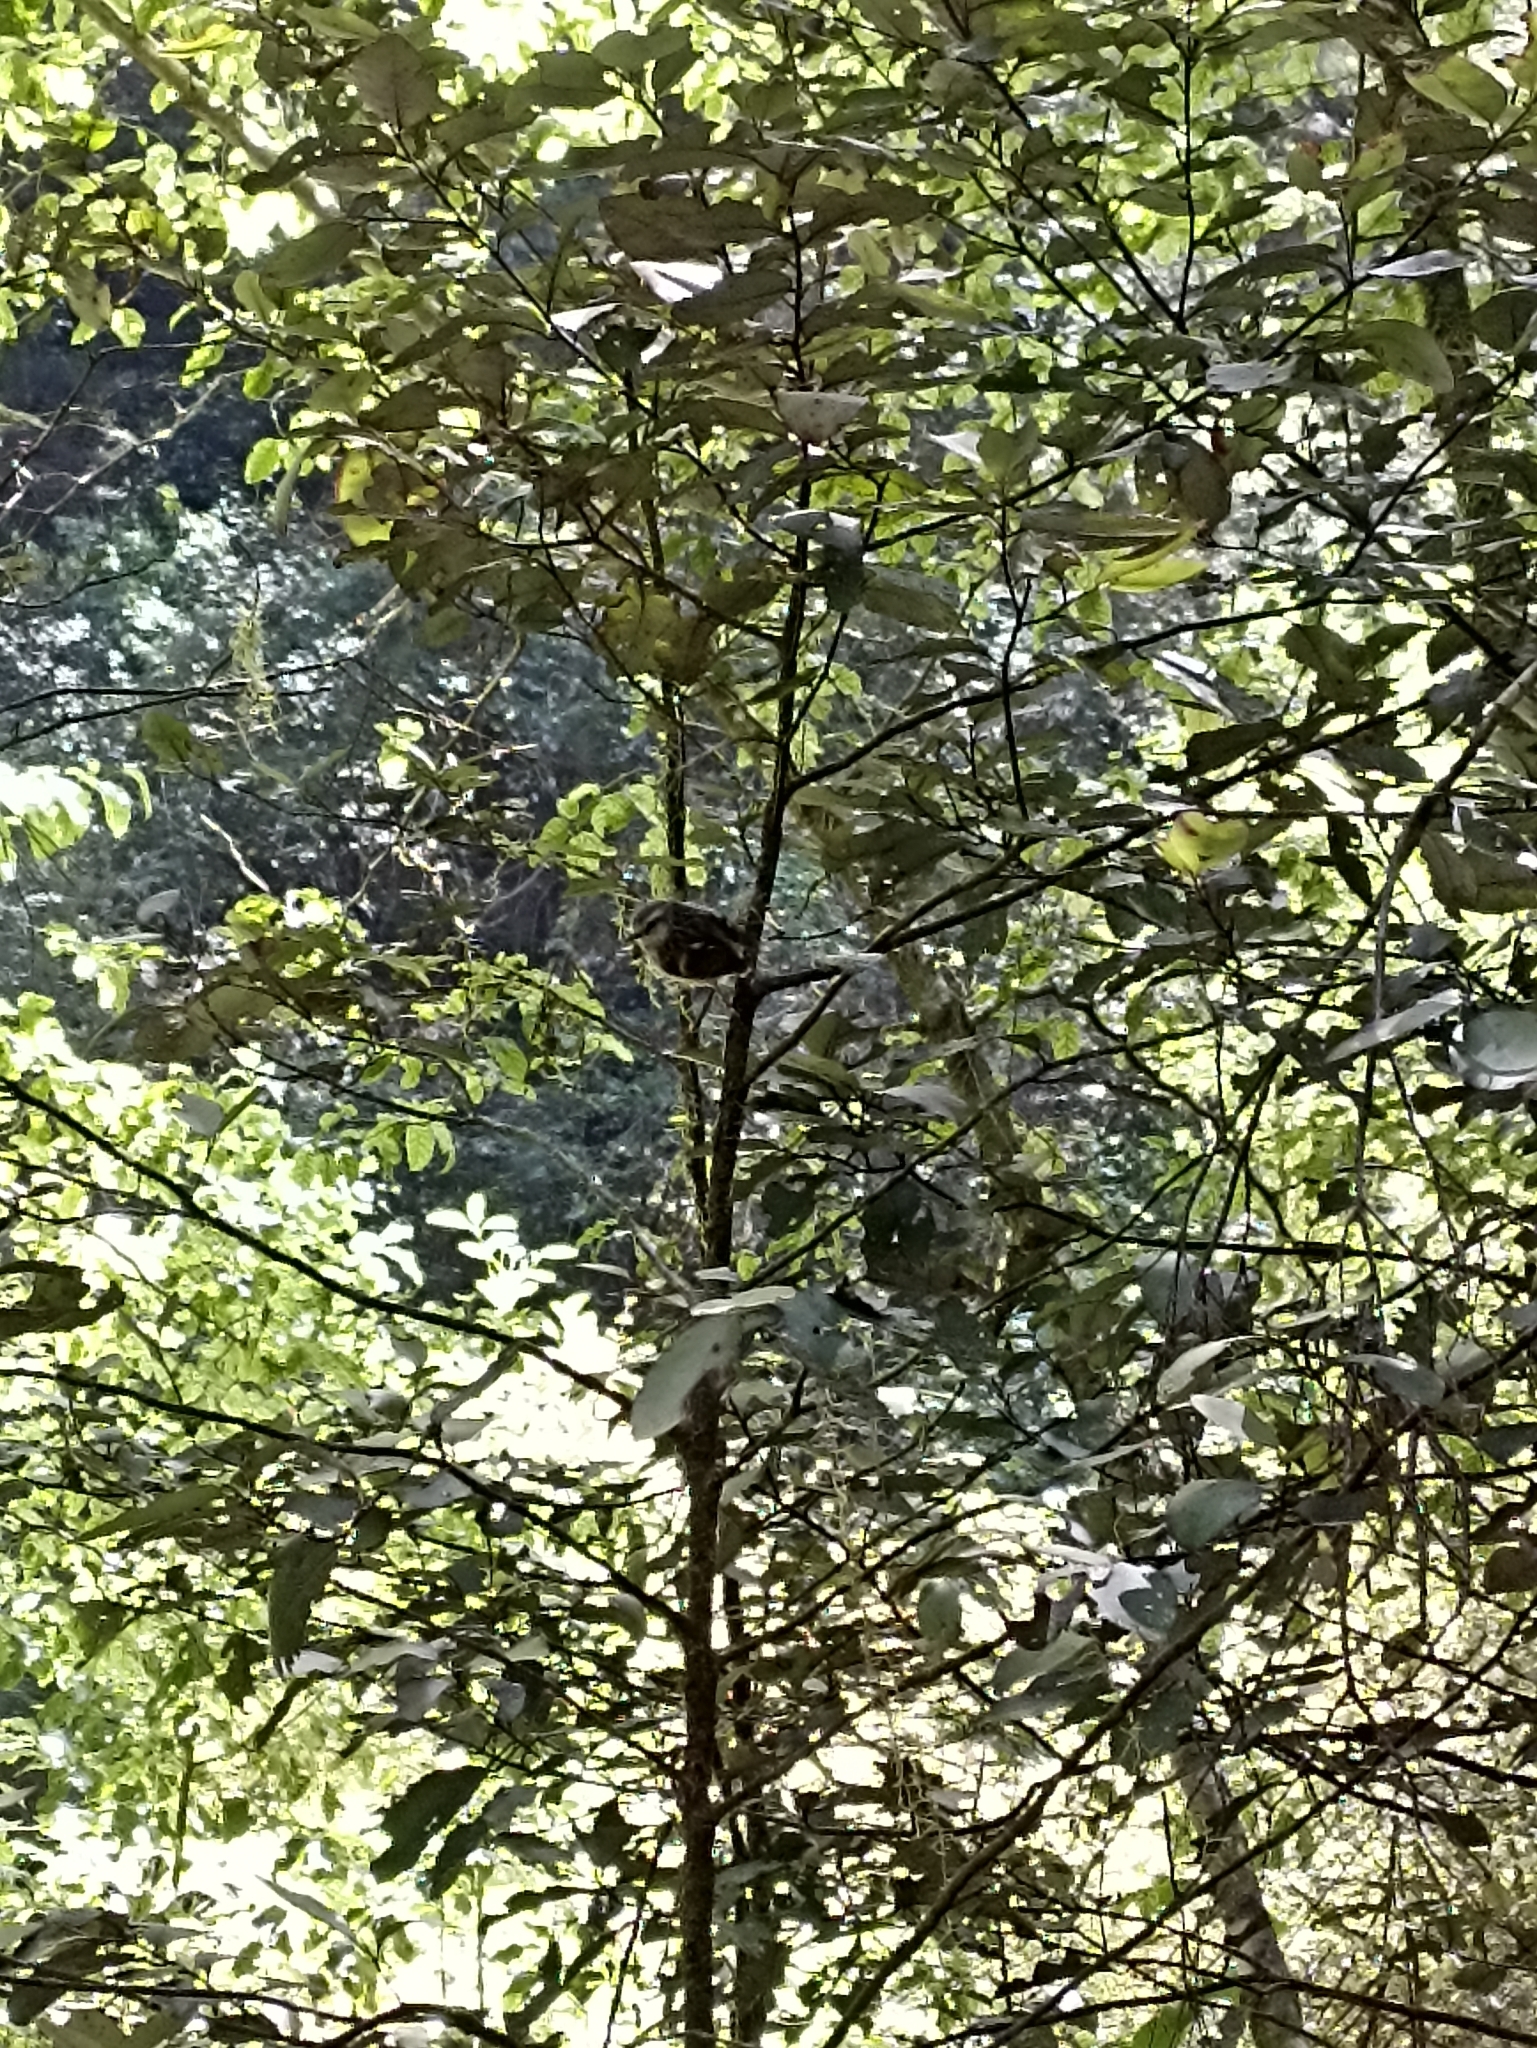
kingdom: Animalia
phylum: Chordata
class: Aves
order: Passeriformes
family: Acanthisittidae
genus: Acanthisitta
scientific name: Acanthisitta chloris
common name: Rifleman
